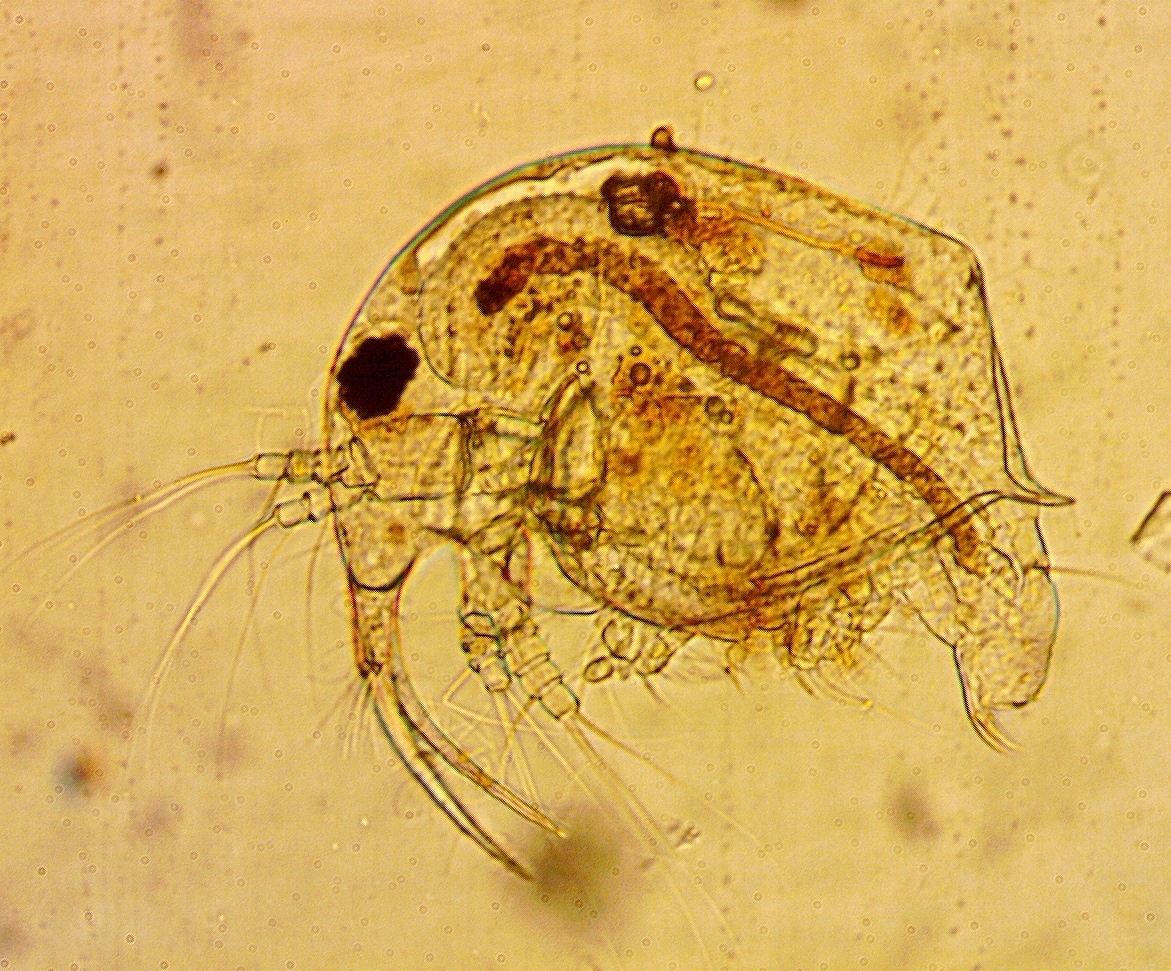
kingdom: Animalia
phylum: Arthropoda
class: Branchiopoda
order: Diplostraca
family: Bosminidae
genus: Bosmina
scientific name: Bosmina longirostris
